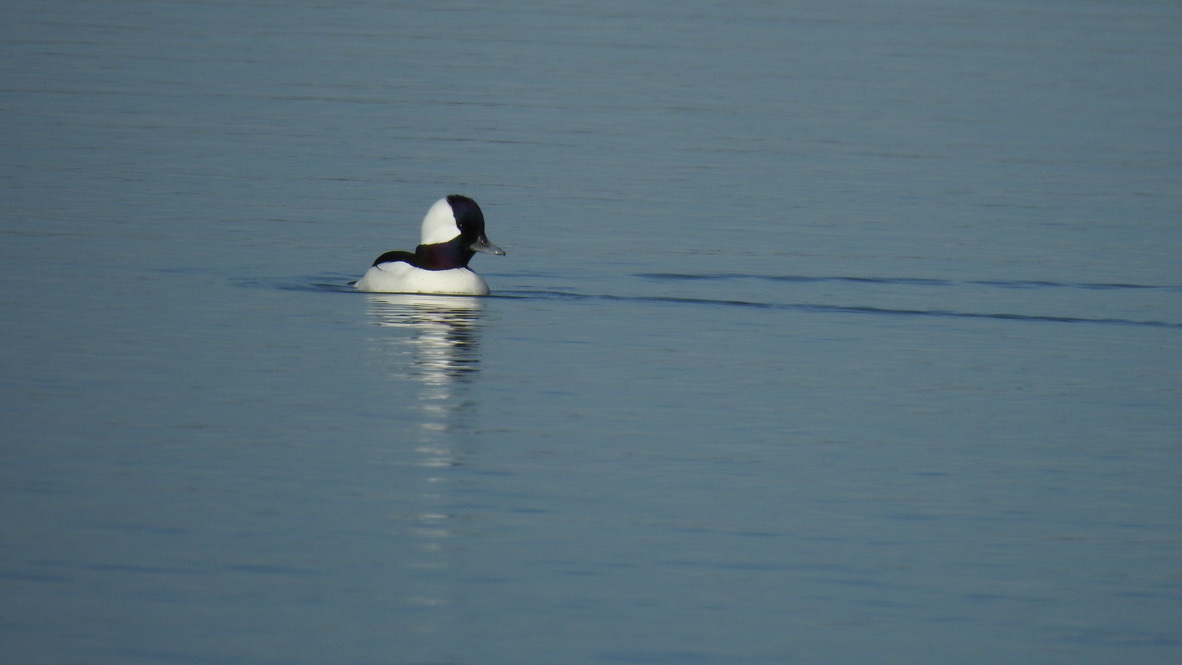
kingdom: Animalia
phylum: Chordata
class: Aves
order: Anseriformes
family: Anatidae
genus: Bucephala
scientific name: Bucephala albeola
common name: Bufflehead
